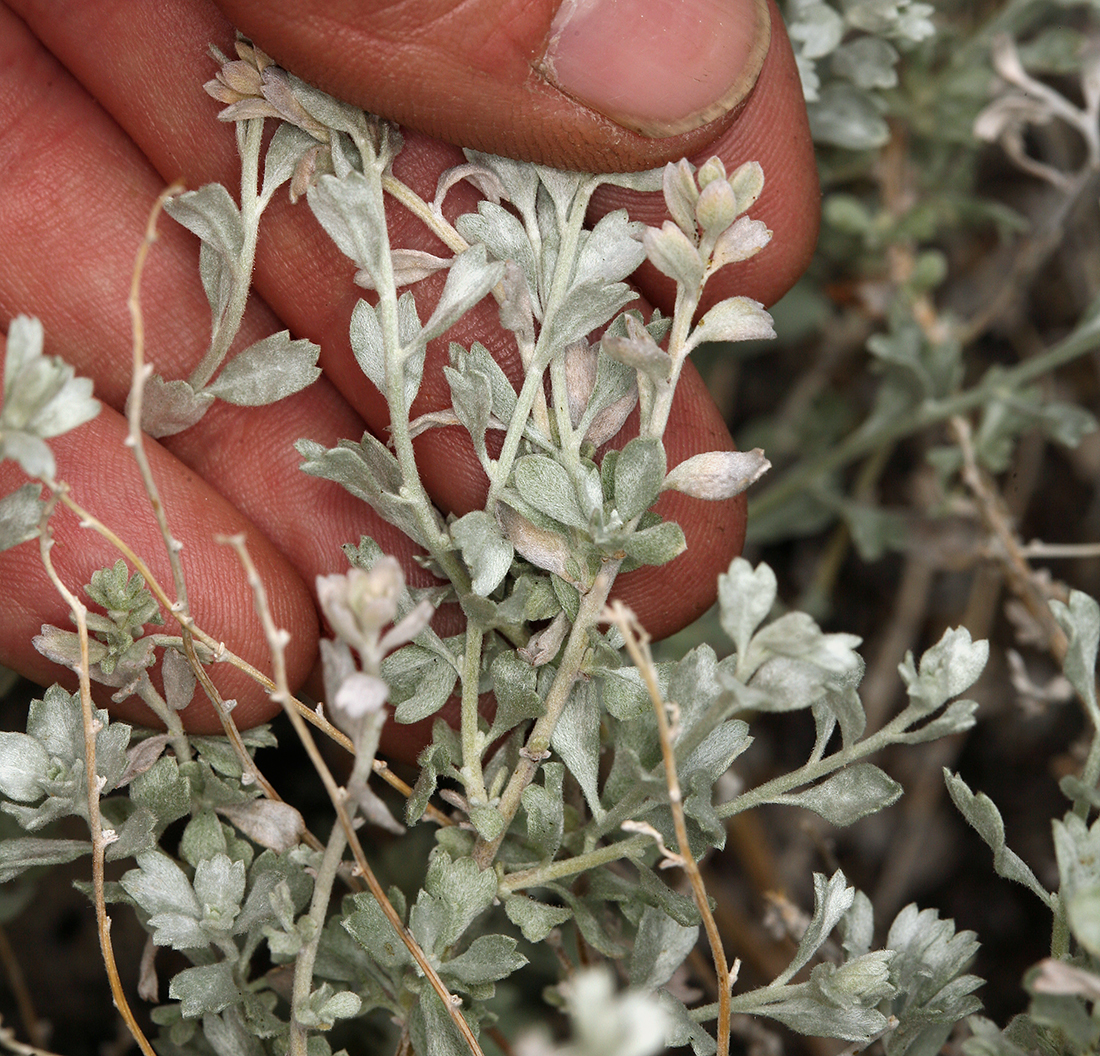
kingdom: Plantae
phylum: Tracheophyta
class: Magnoliopsida
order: Asterales
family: Asteraceae
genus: Artemisia
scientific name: Artemisia bigelovii
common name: Bigelow sagebrush
